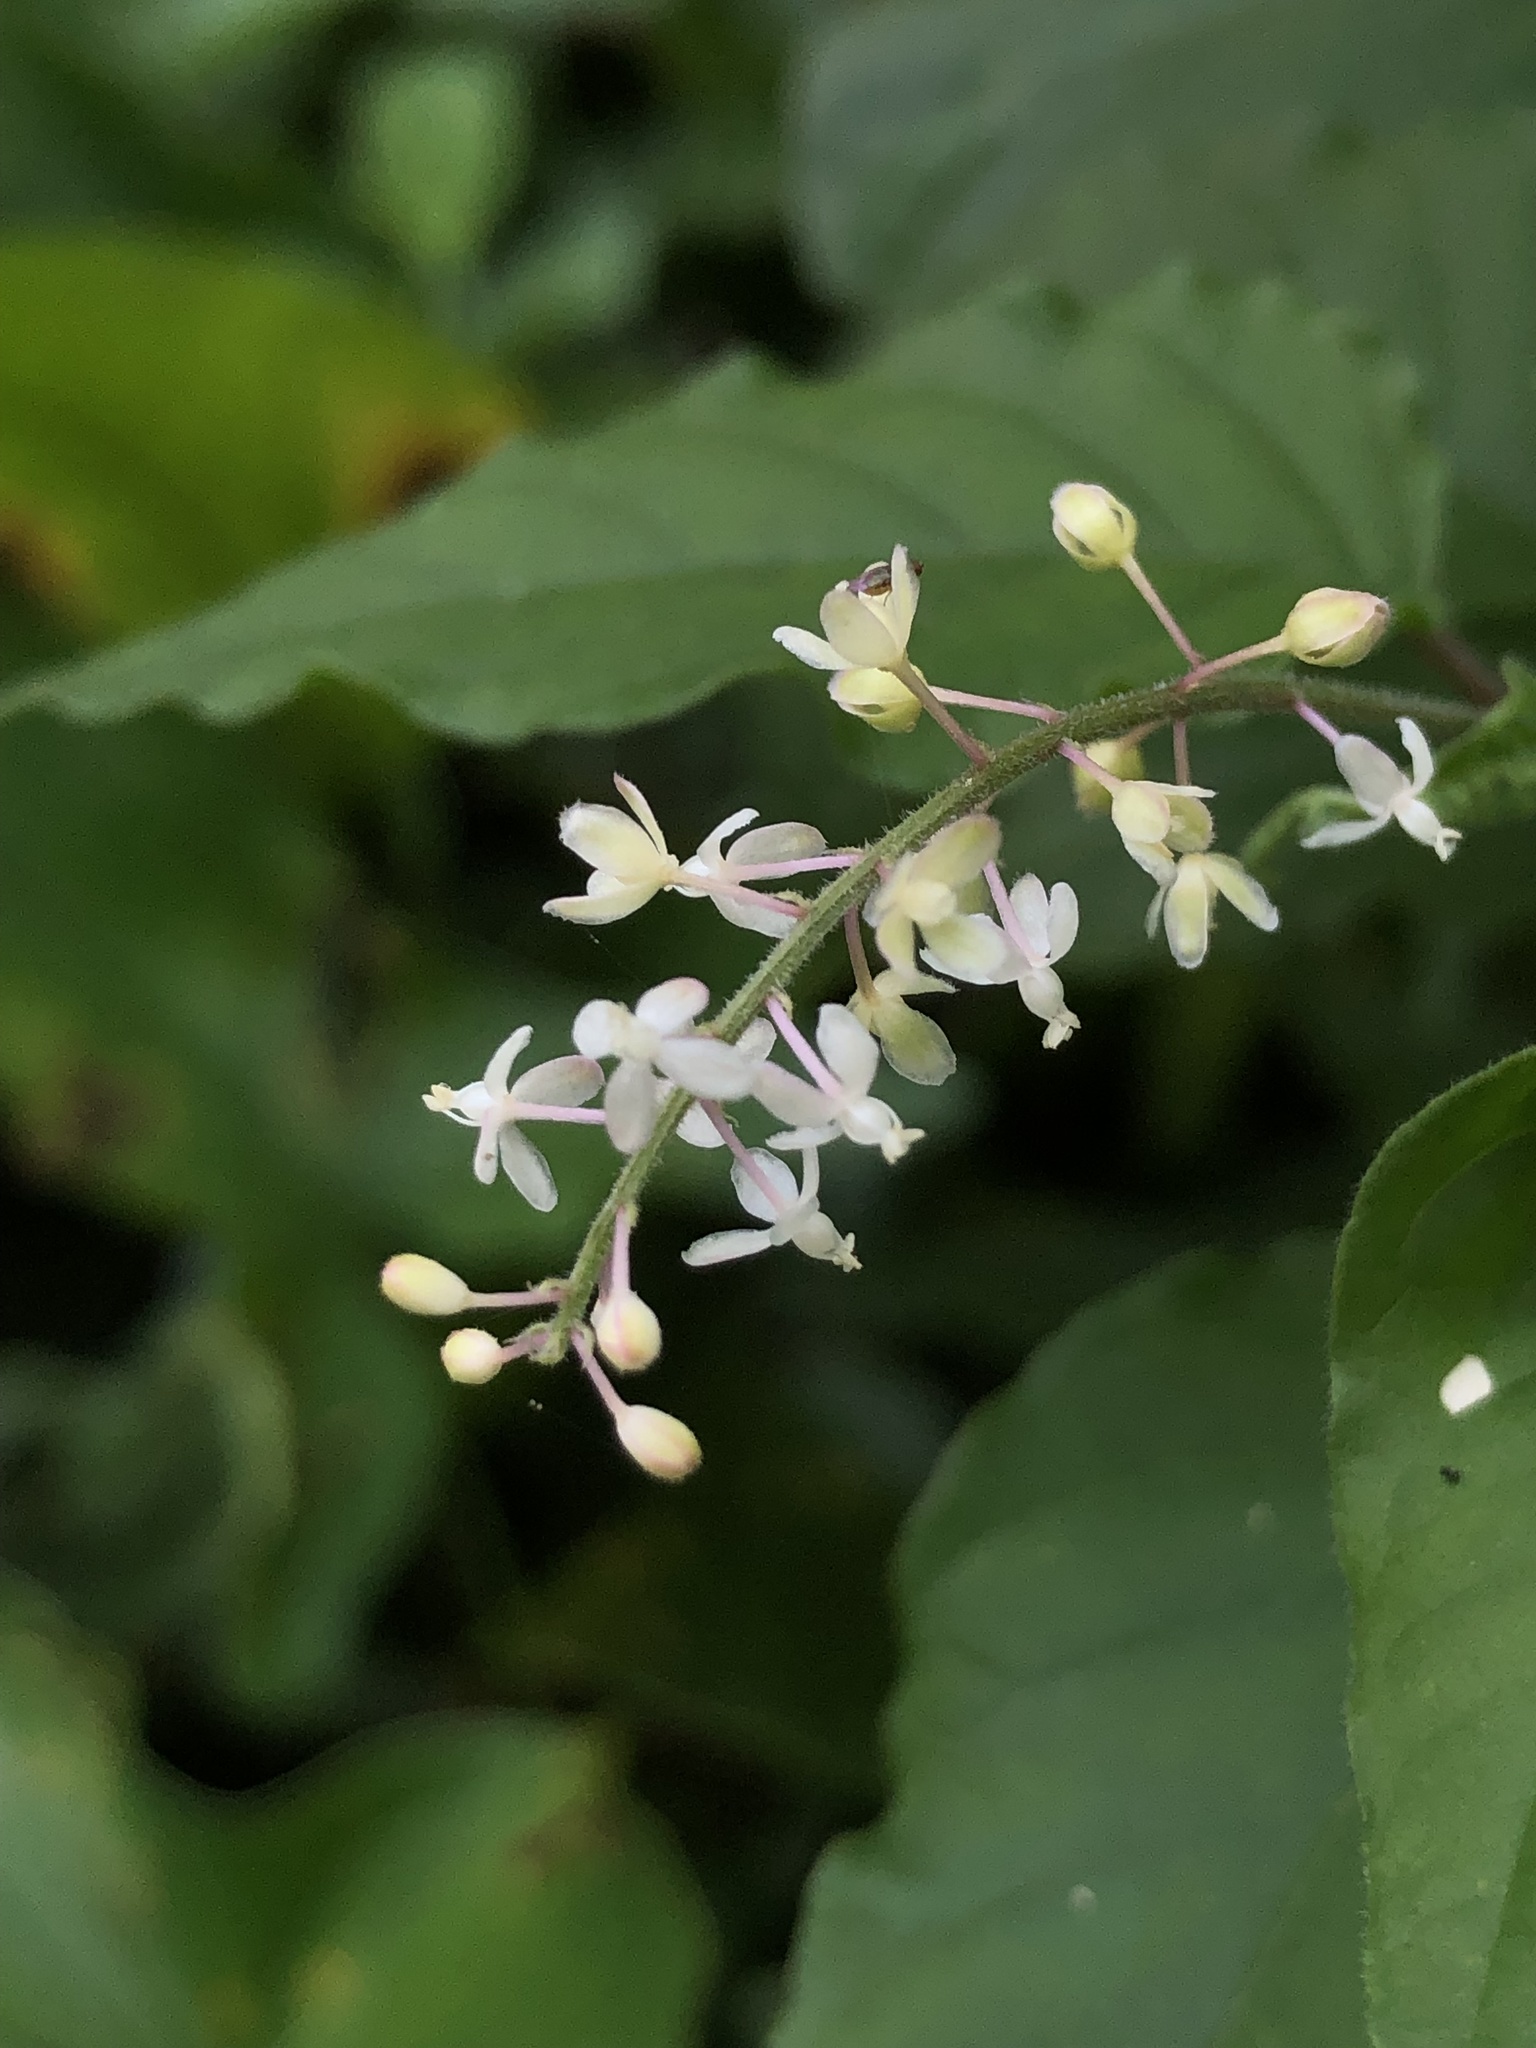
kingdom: Plantae
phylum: Tracheophyta
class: Magnoliopsida
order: Caryophyllales
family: Phytolaccaceae
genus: Rivina
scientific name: Rivina humilis
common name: Rougeplant
